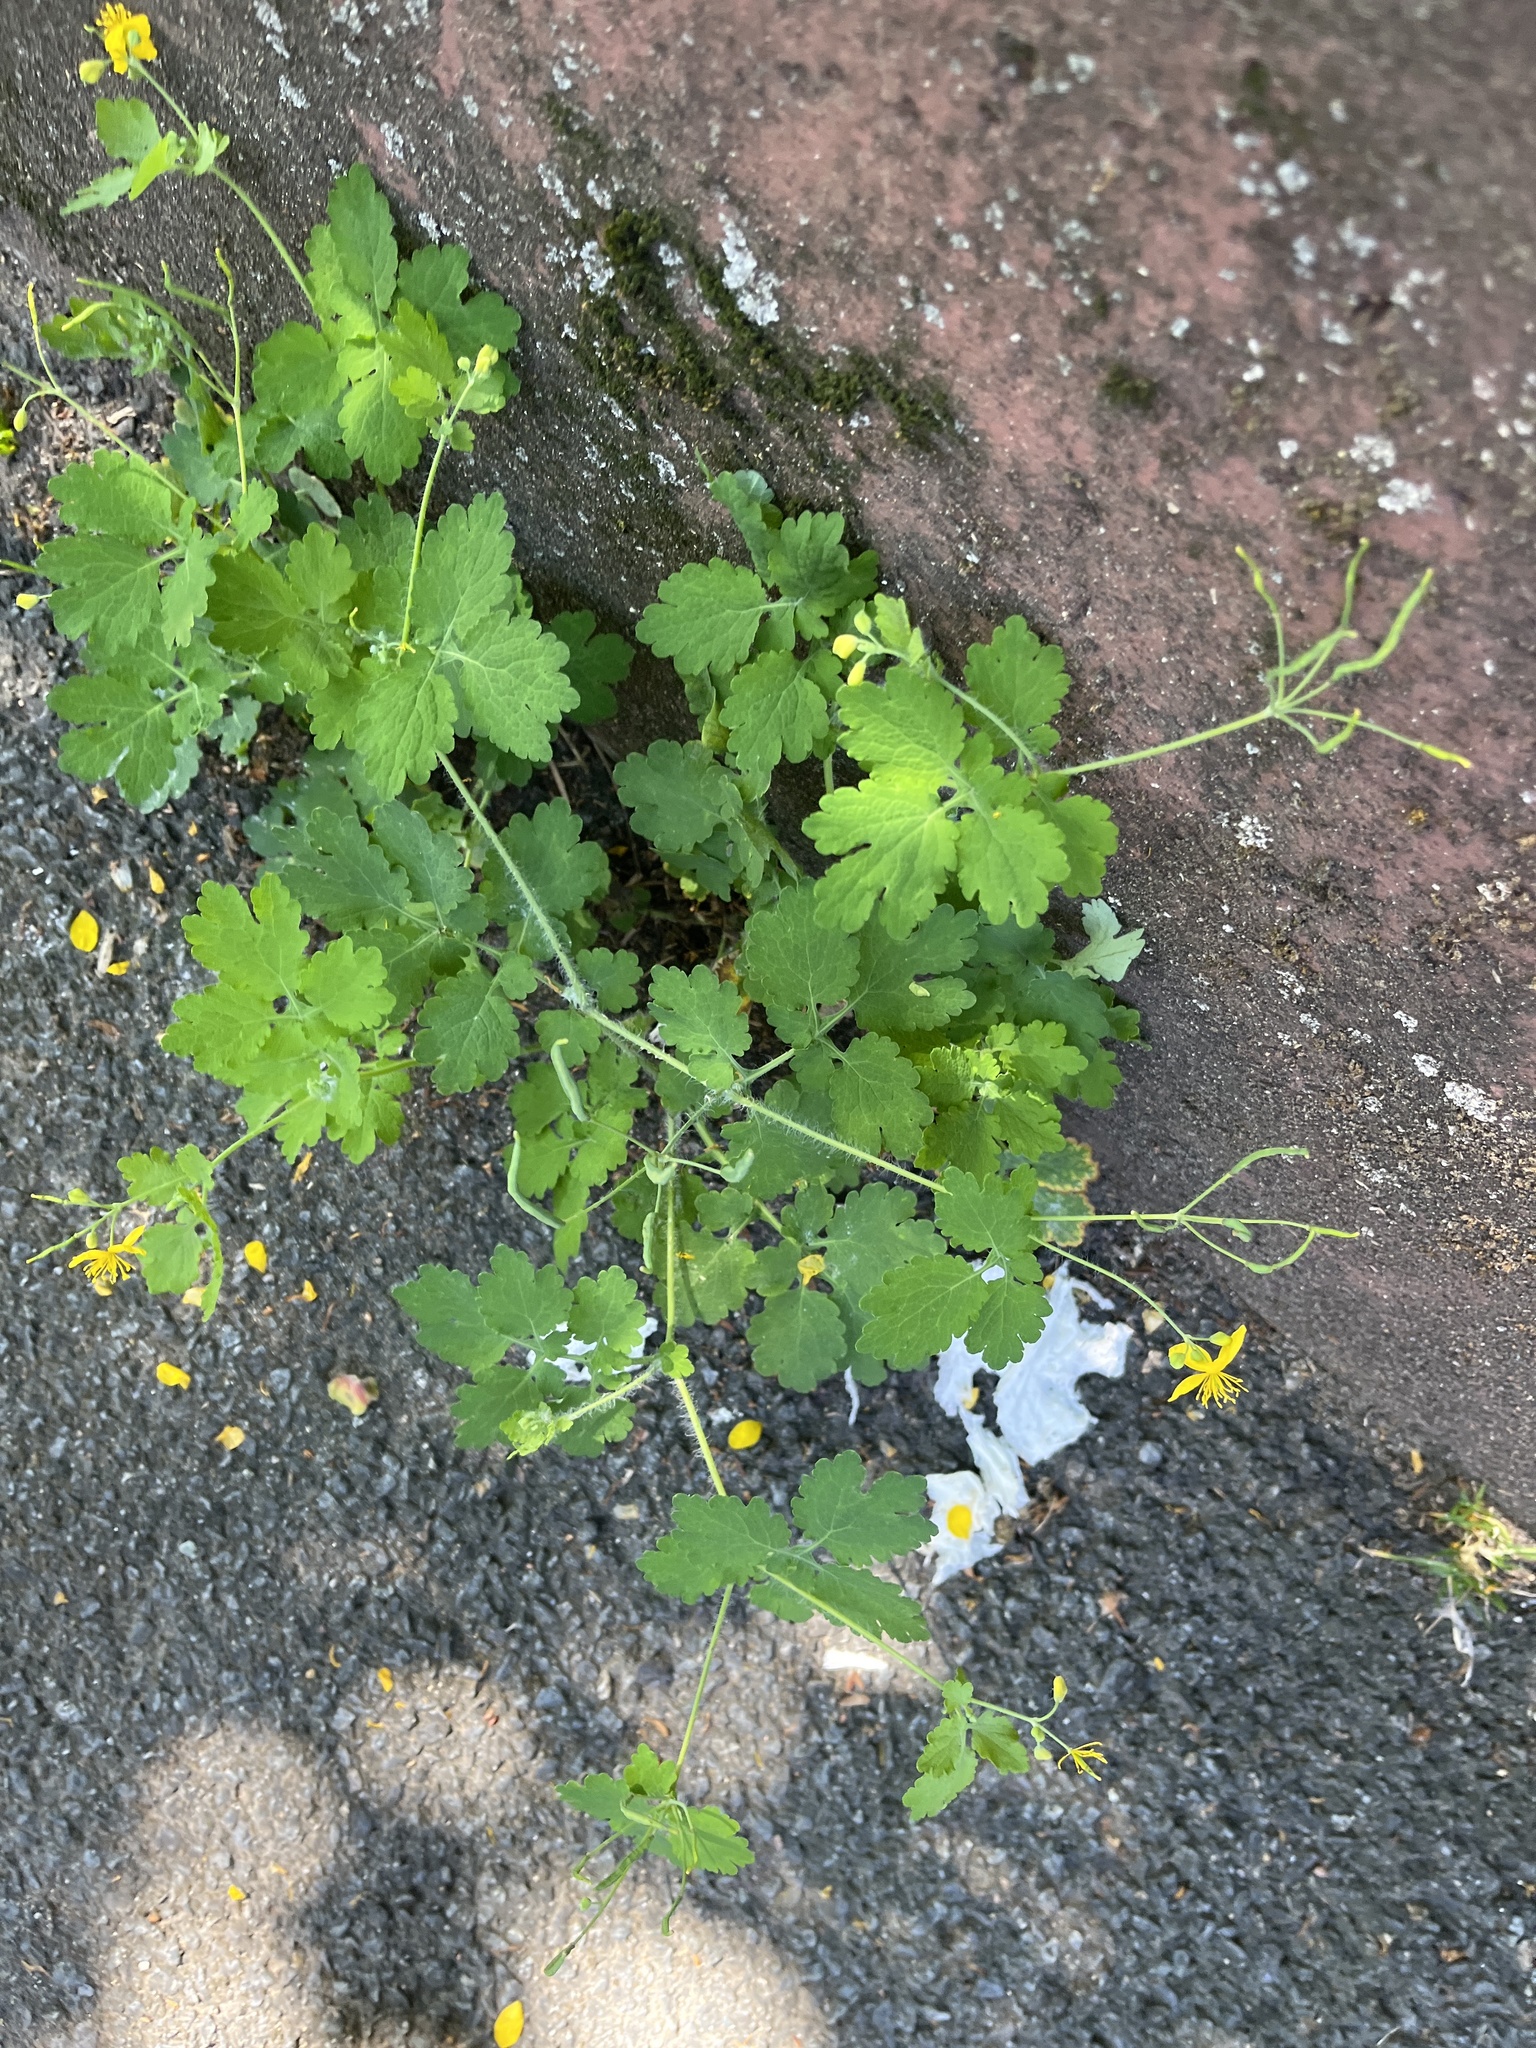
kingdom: Plantae
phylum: Tracheophyta
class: Magnoliopsida
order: Ranunculales
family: Papaveraceae
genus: Chelidonium
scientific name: Chelidonium majus
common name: Greater celandine
